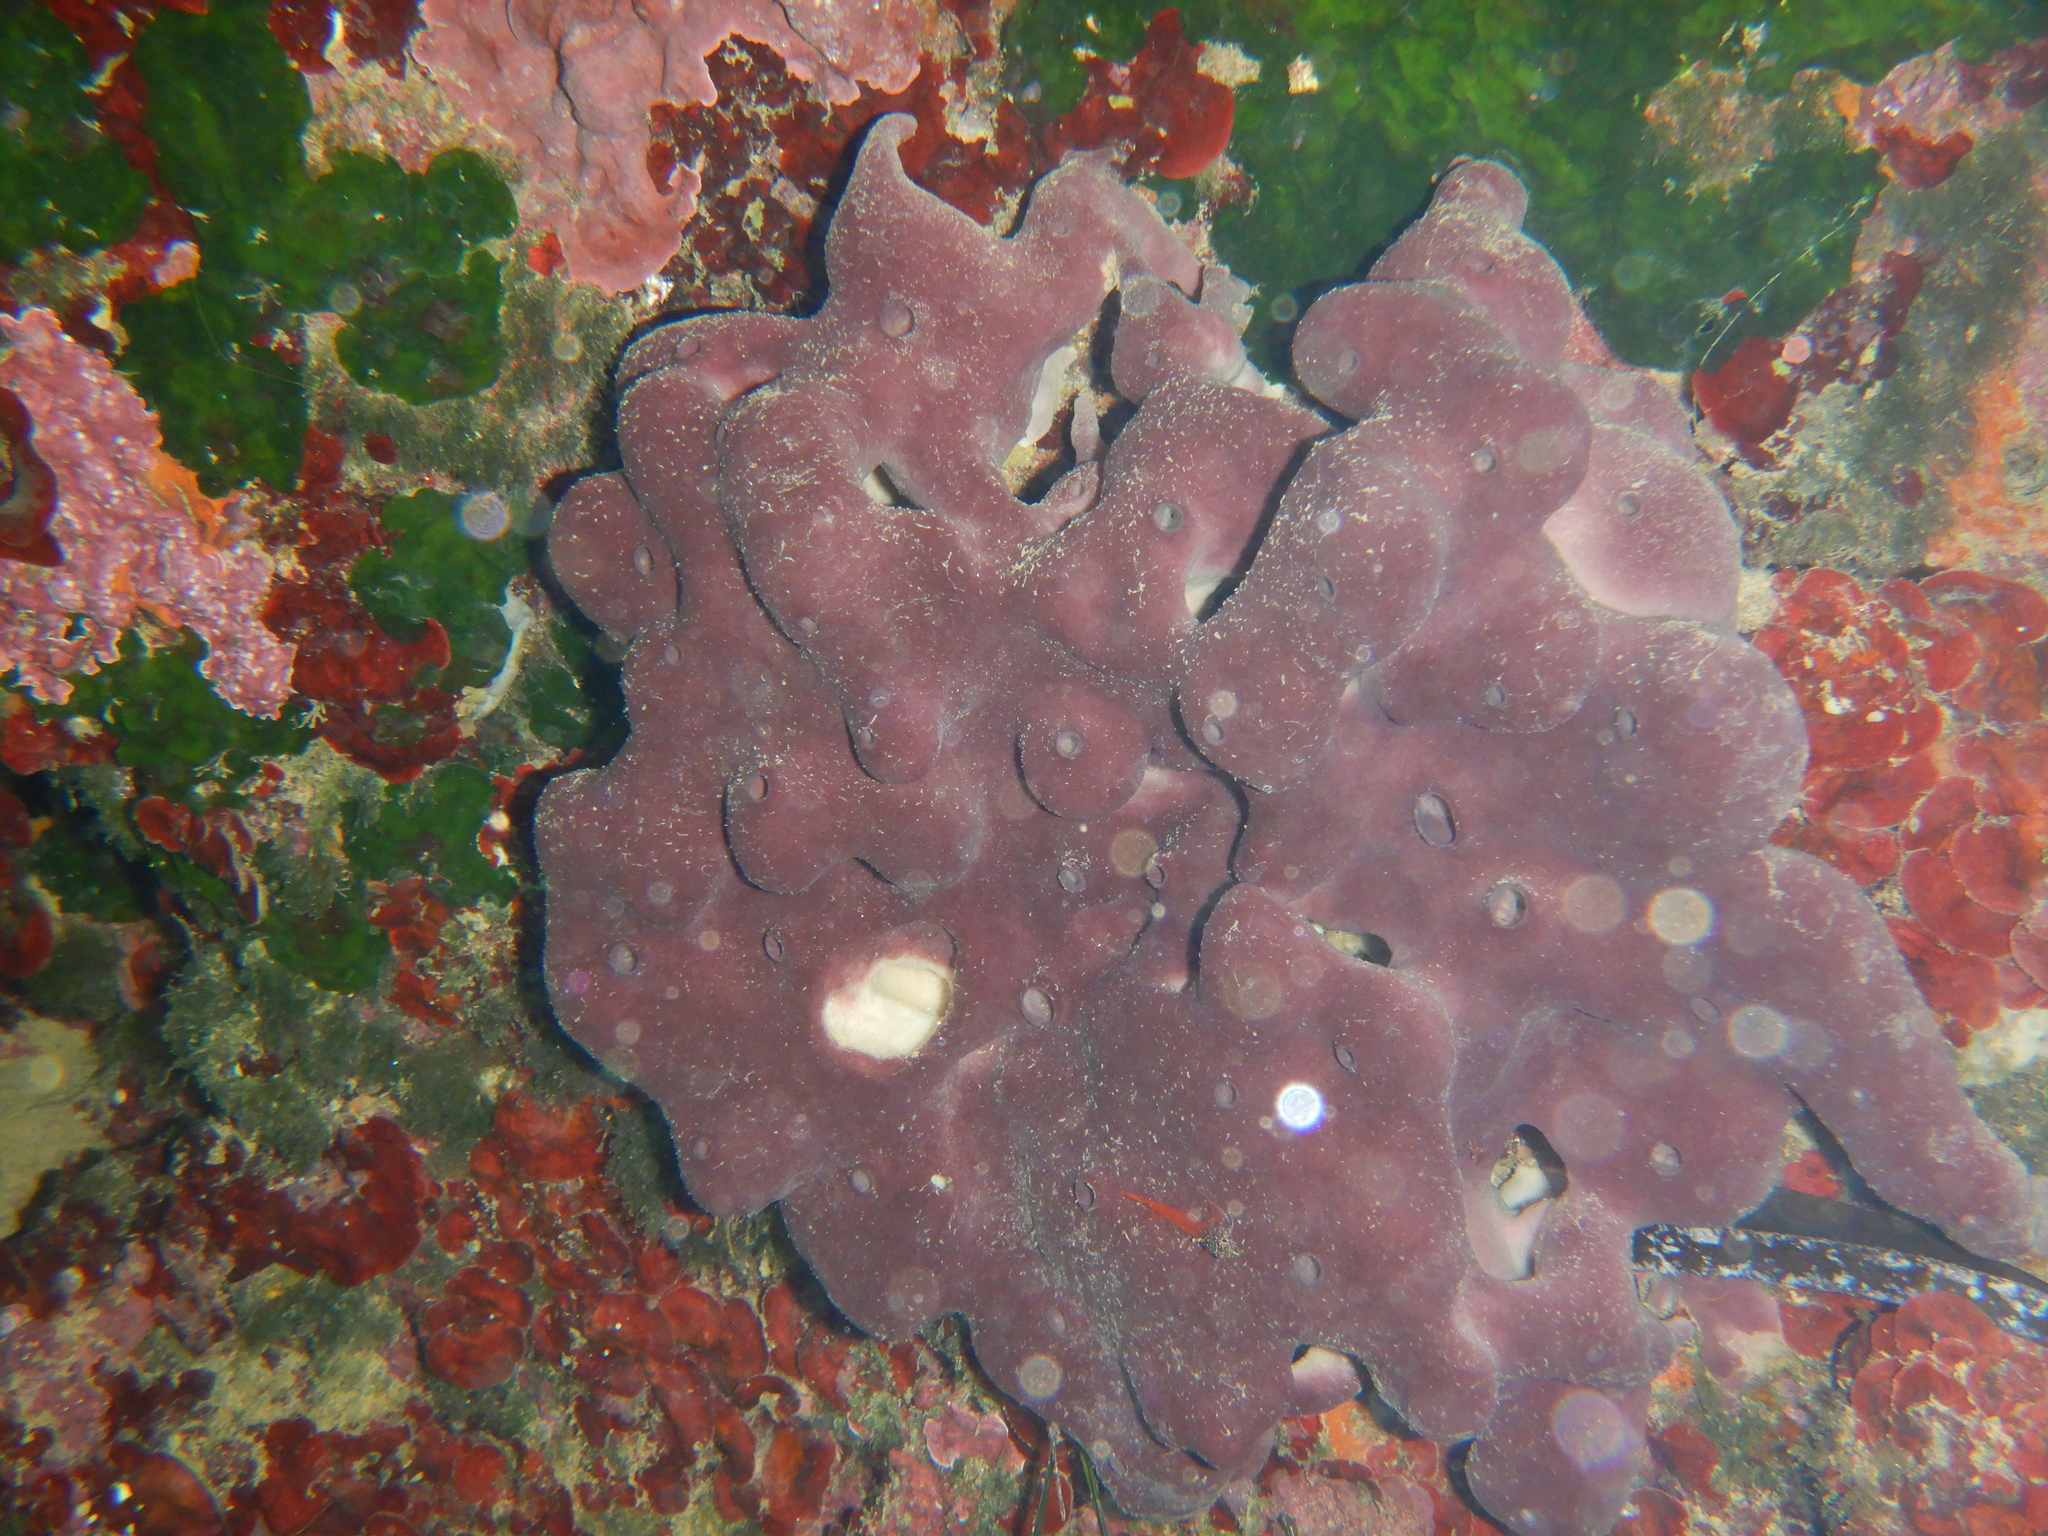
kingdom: Animalia
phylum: Porifera
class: Demospongiae
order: Haplosclerida
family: Petrosiidae
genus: Petrosia
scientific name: Petrosia ficiformis
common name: Stony sponge
